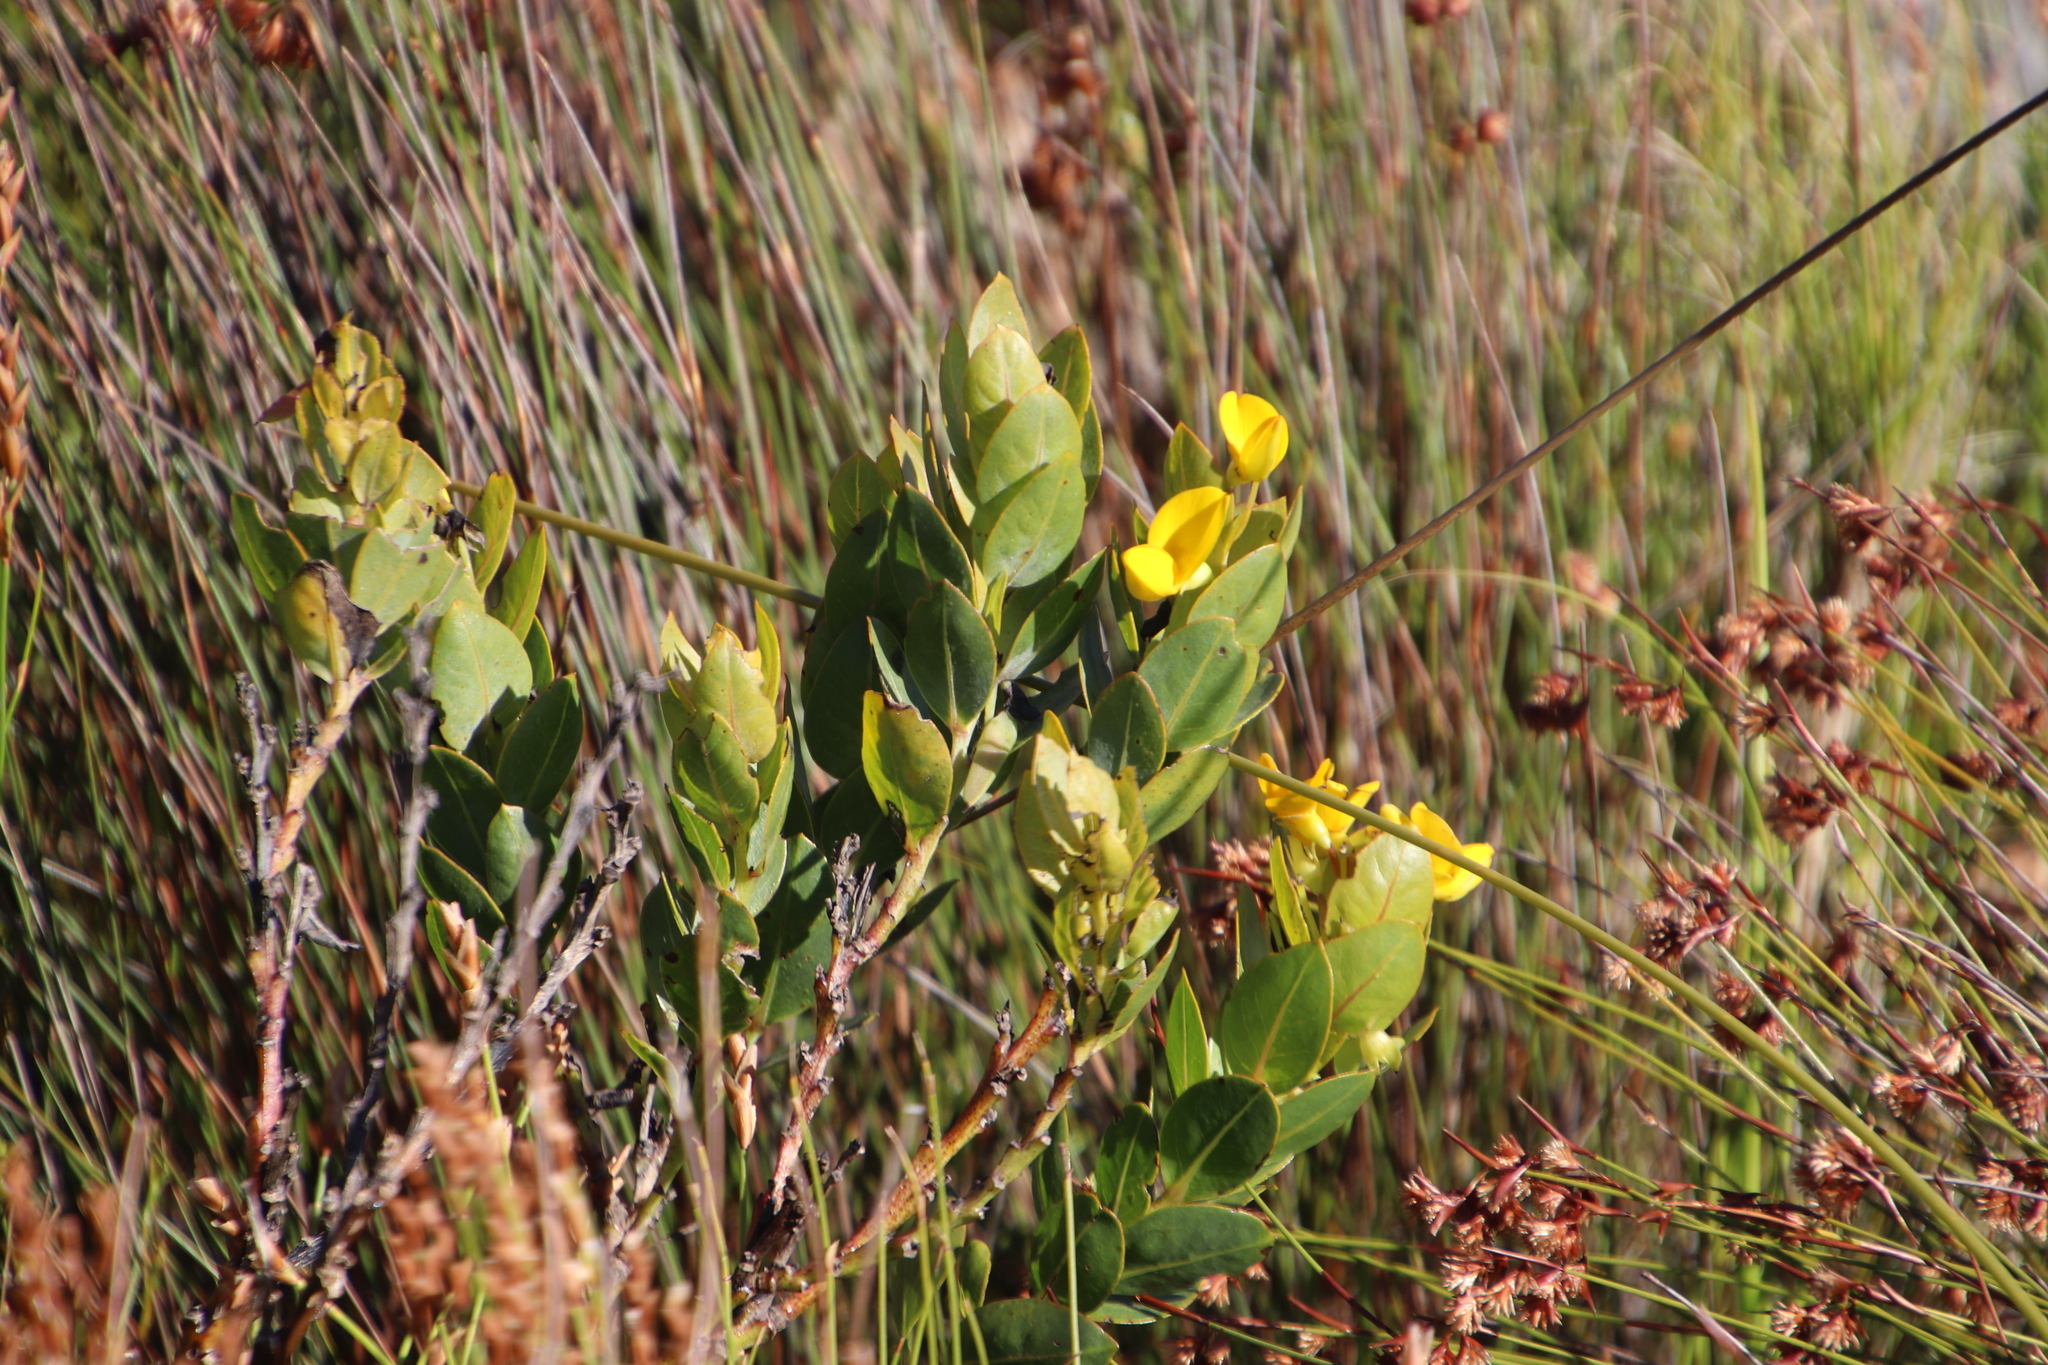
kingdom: Plantae
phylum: Tracheophyta
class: Magnoliopsida
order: Fabales
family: Fabaceae
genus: Rafnia
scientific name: Rafnia triflora
